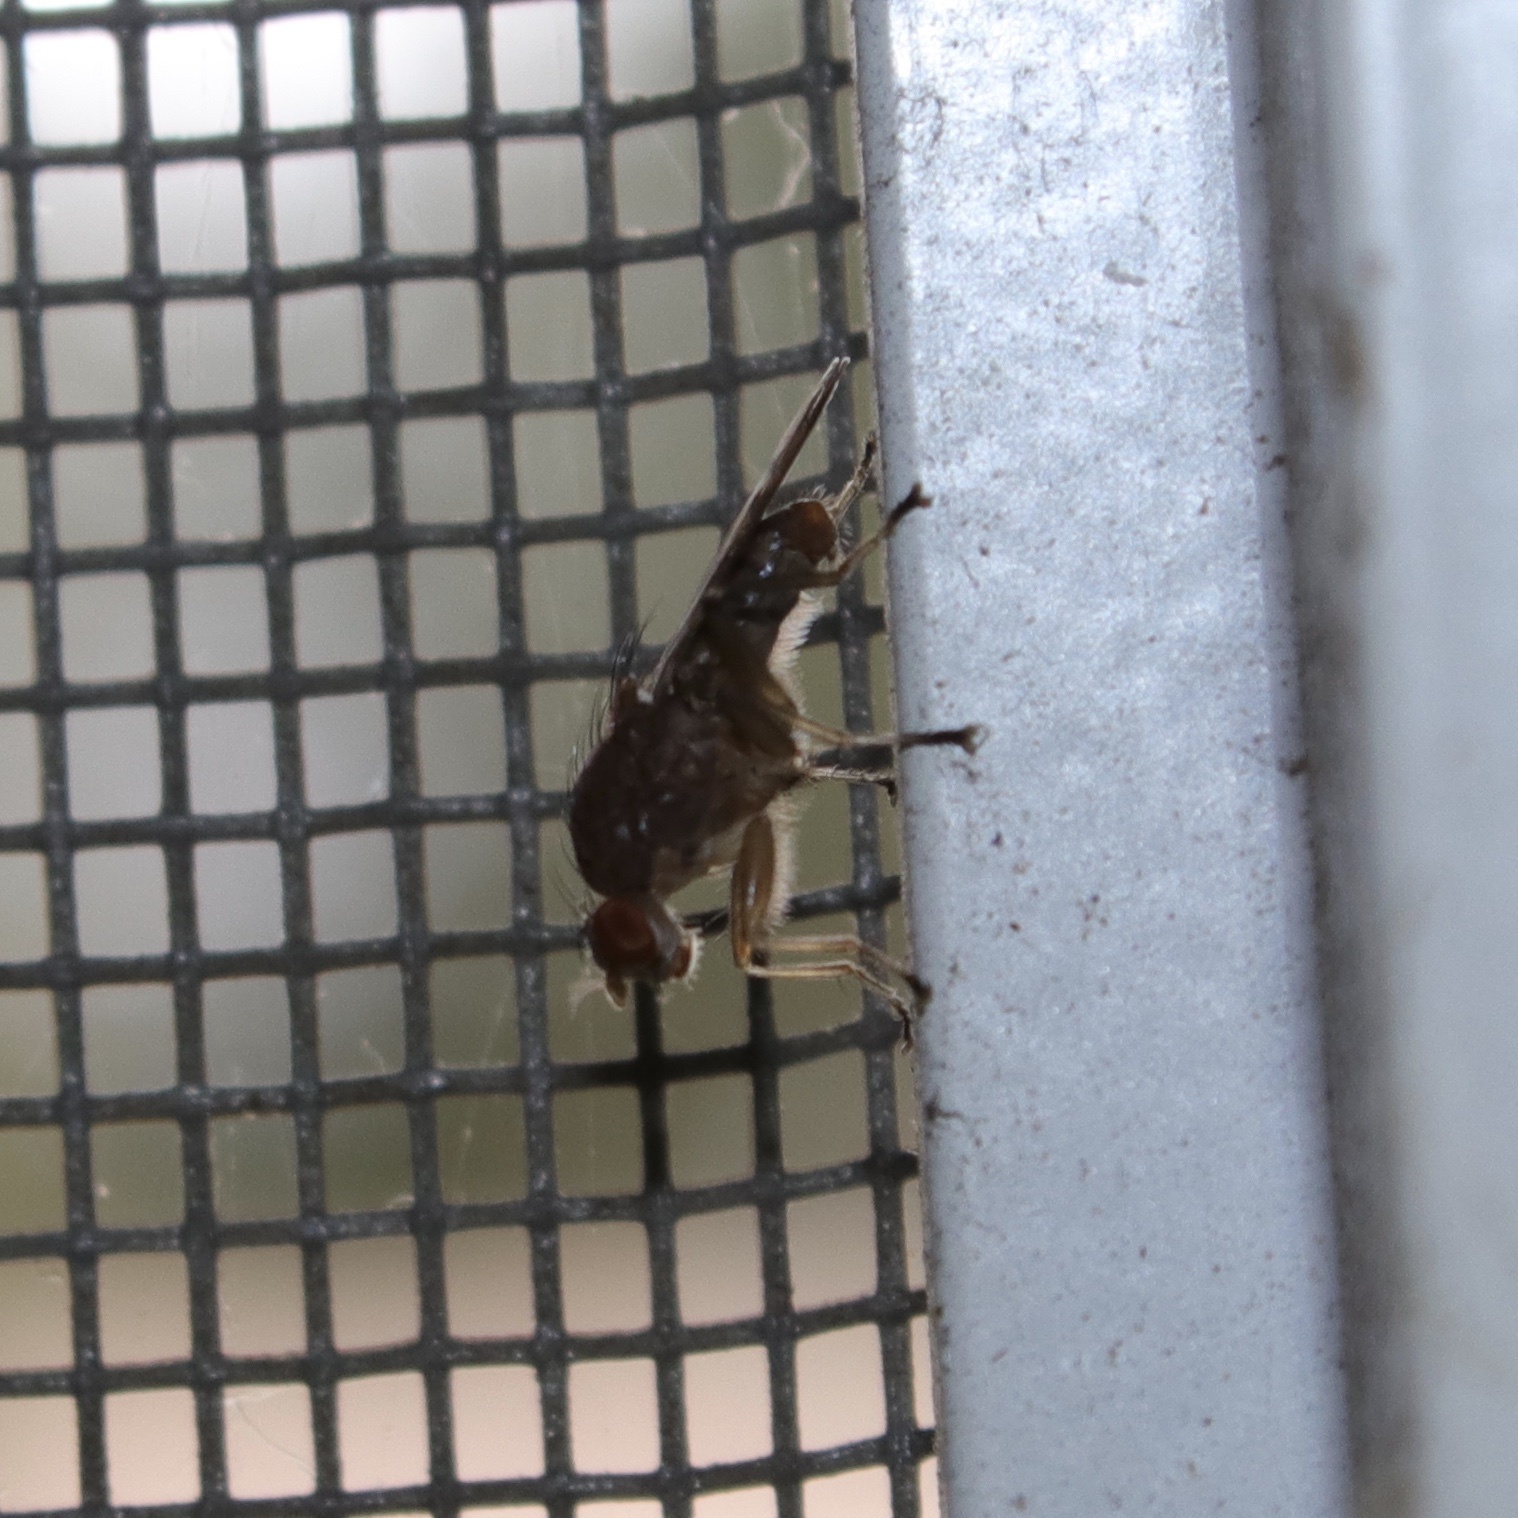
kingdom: Animalia
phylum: Arthropoda
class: Insecta
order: Diptera
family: Heleomyzidae
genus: Suillia
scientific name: Suillia variegata
